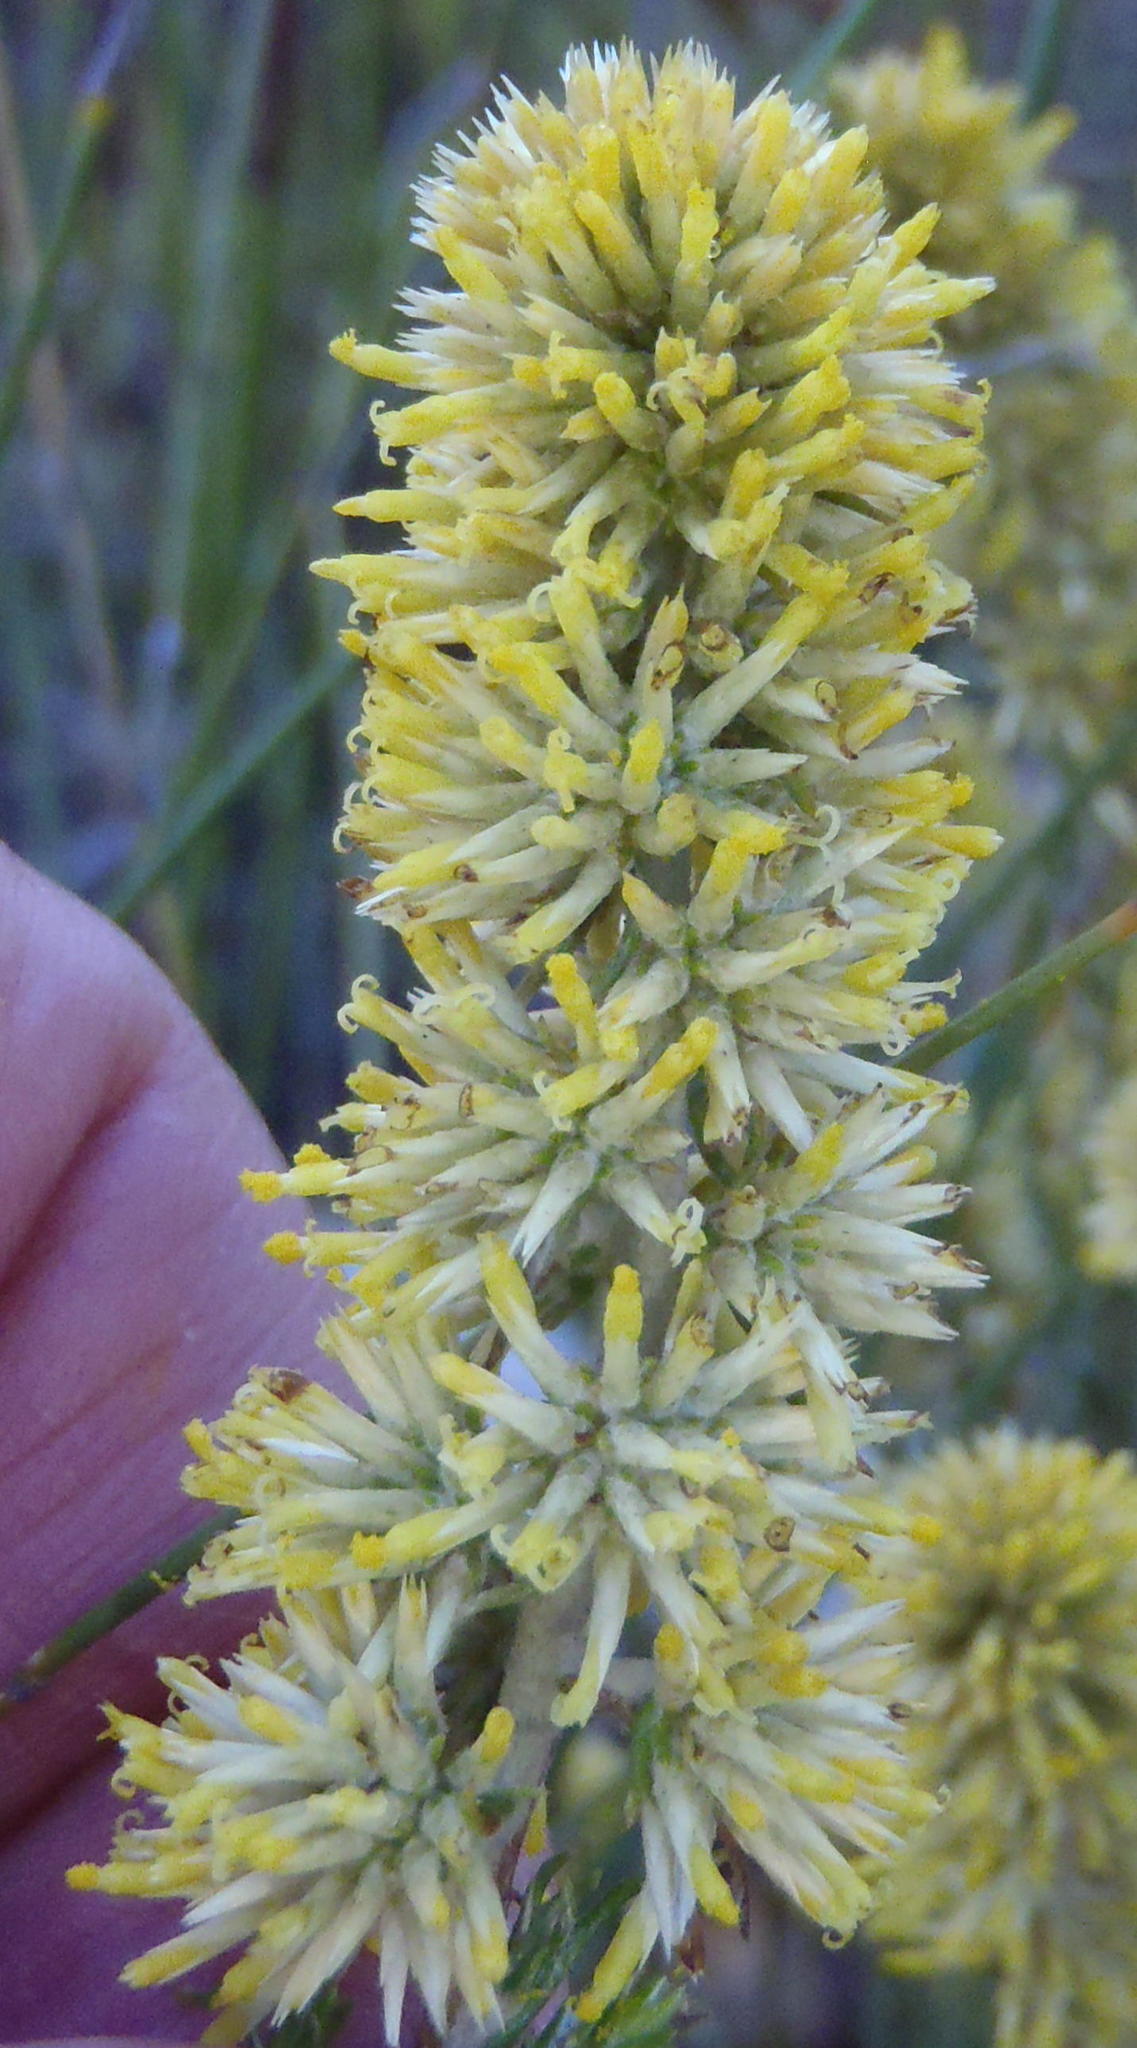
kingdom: Plantae
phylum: Tracheophyta
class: Magnoliopsida
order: Asterales
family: Asteraceae
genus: Seriphium
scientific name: Seriphium spirale
